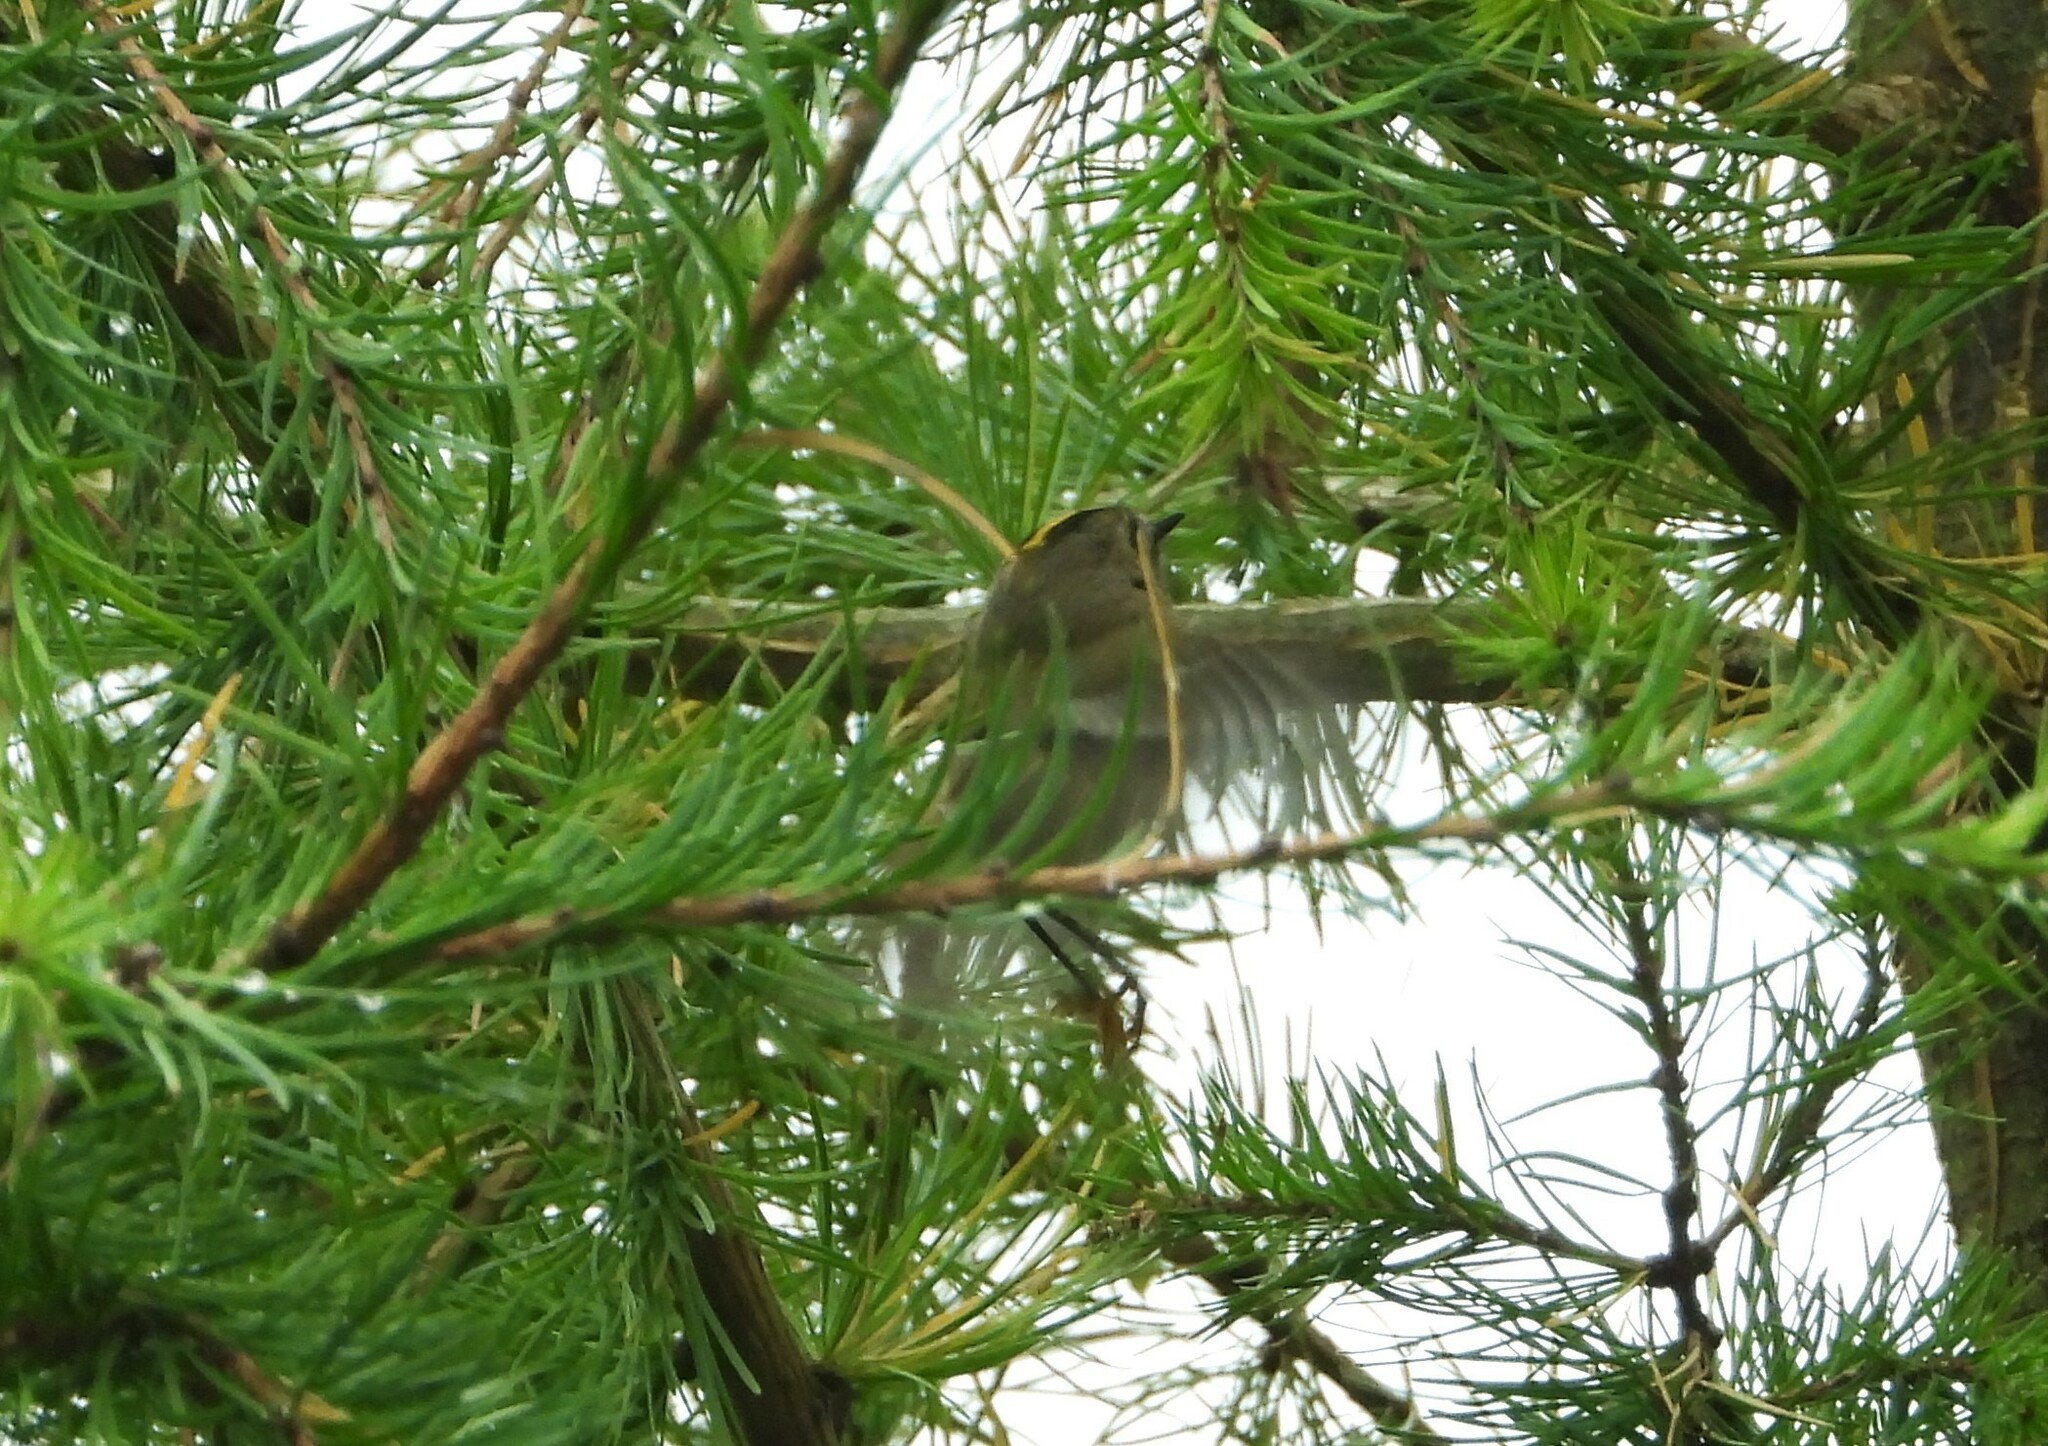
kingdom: Animalia
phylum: Chordata
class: Aves
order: Passeriformes
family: Regulidae
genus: Regulus
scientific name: Regulus regulus
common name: Goldcrest
